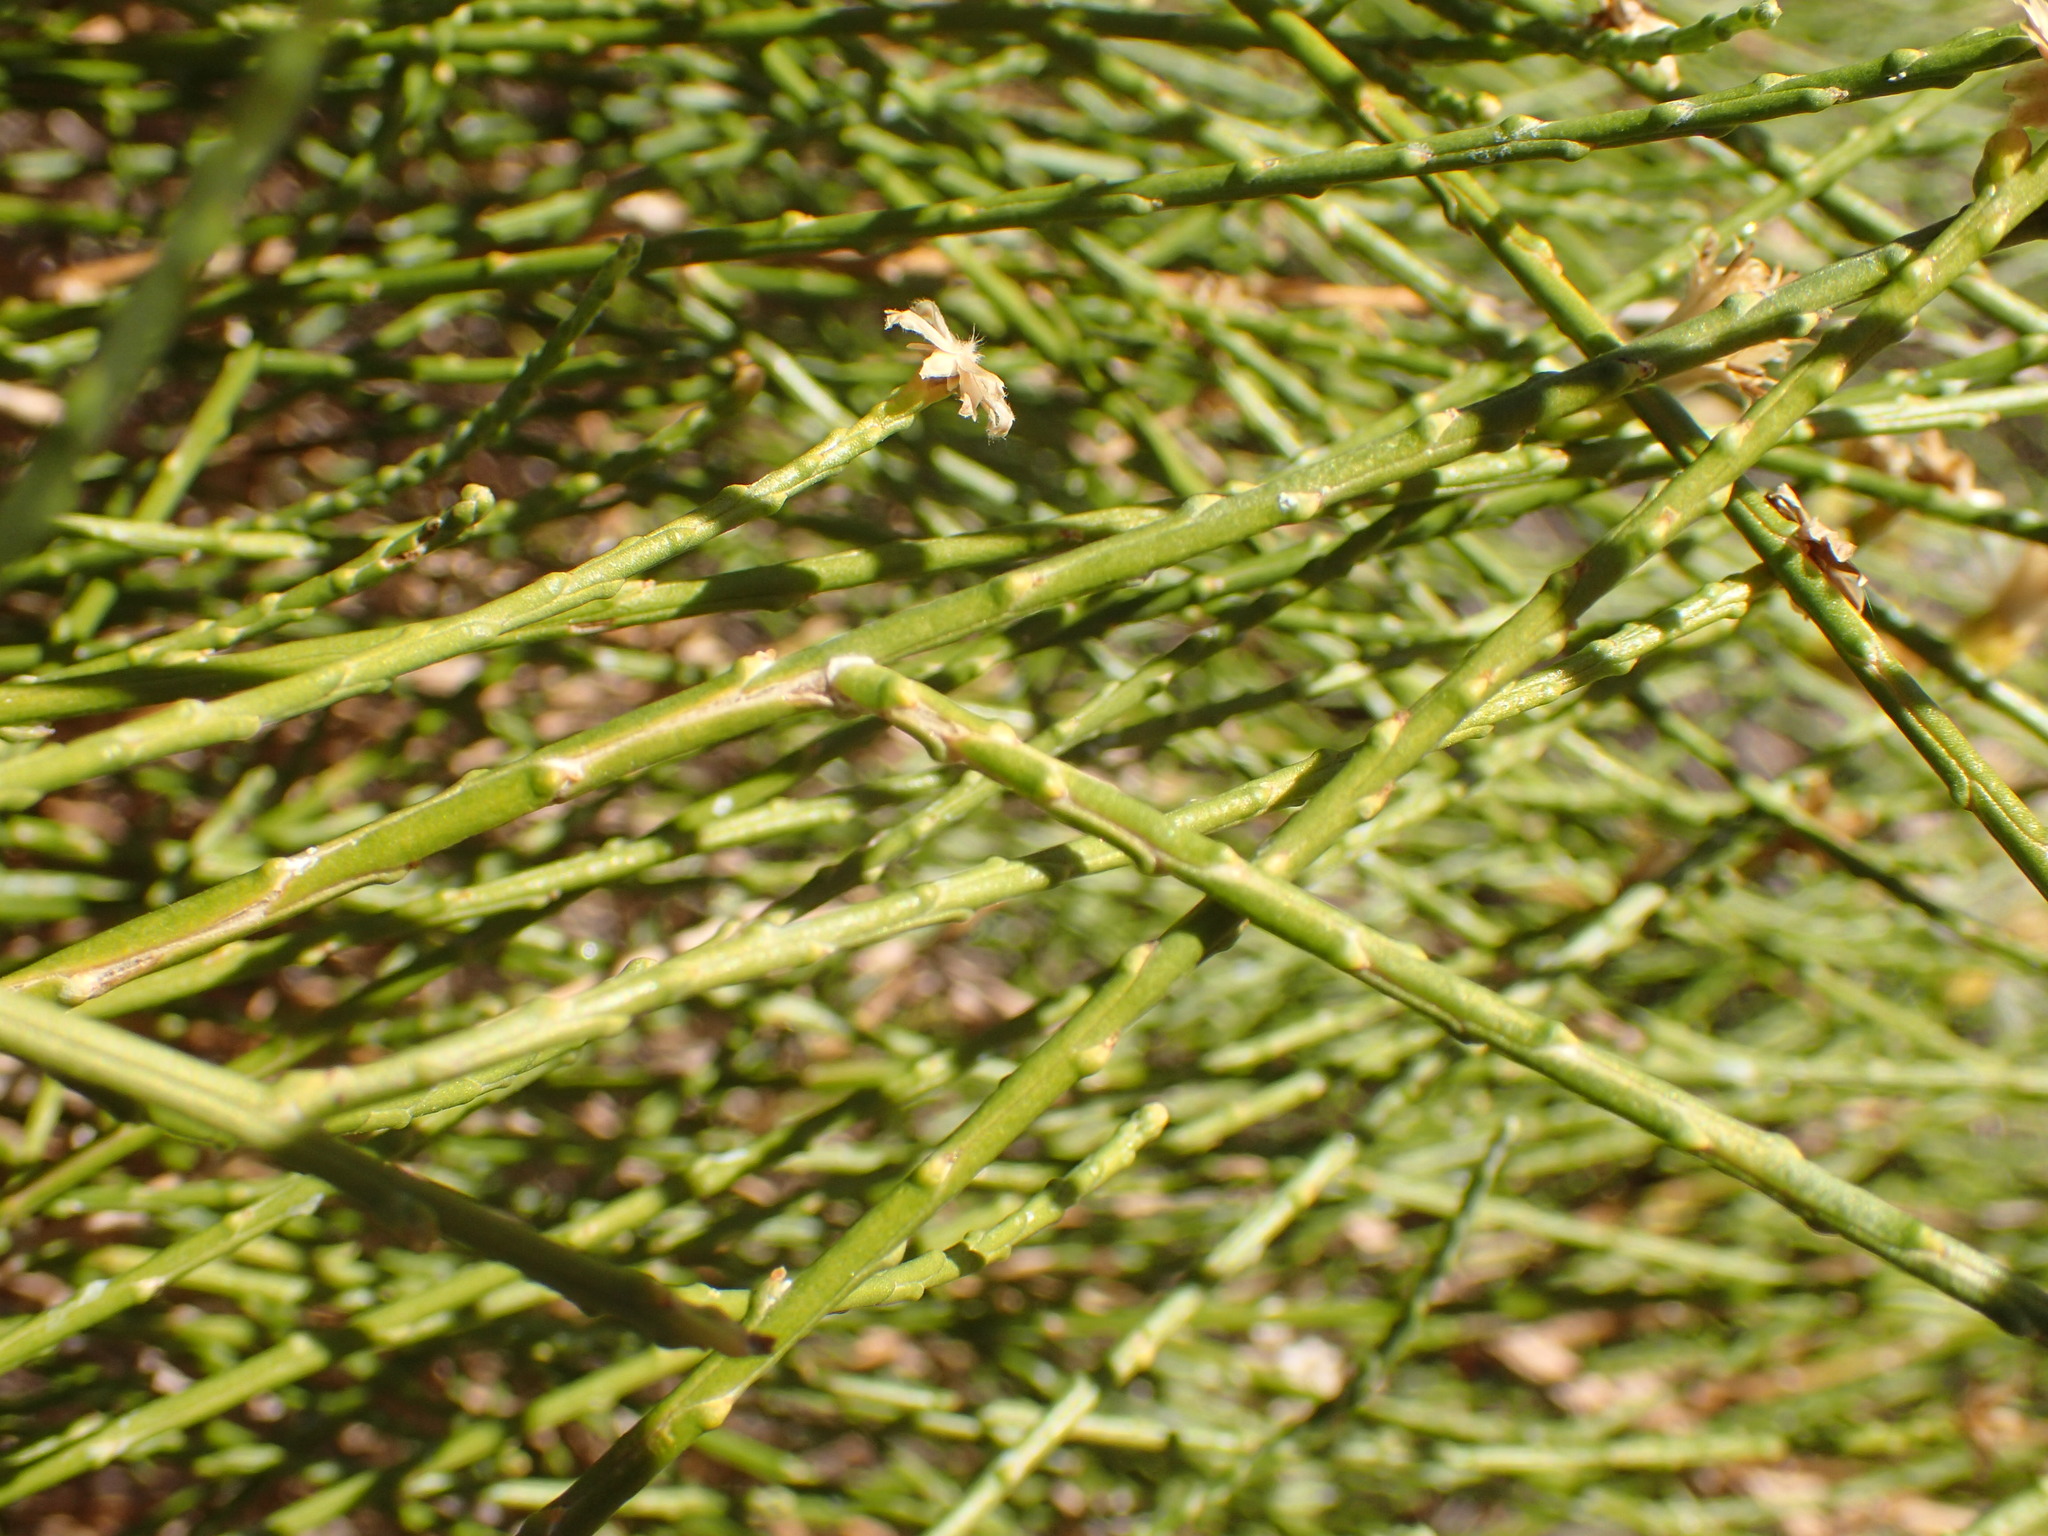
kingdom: Plantae
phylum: Tracheophyta
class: Magnoliopsida
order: Asterales
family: Asteraceae
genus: Lepidospartum
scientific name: Lepidospartum squamatum
